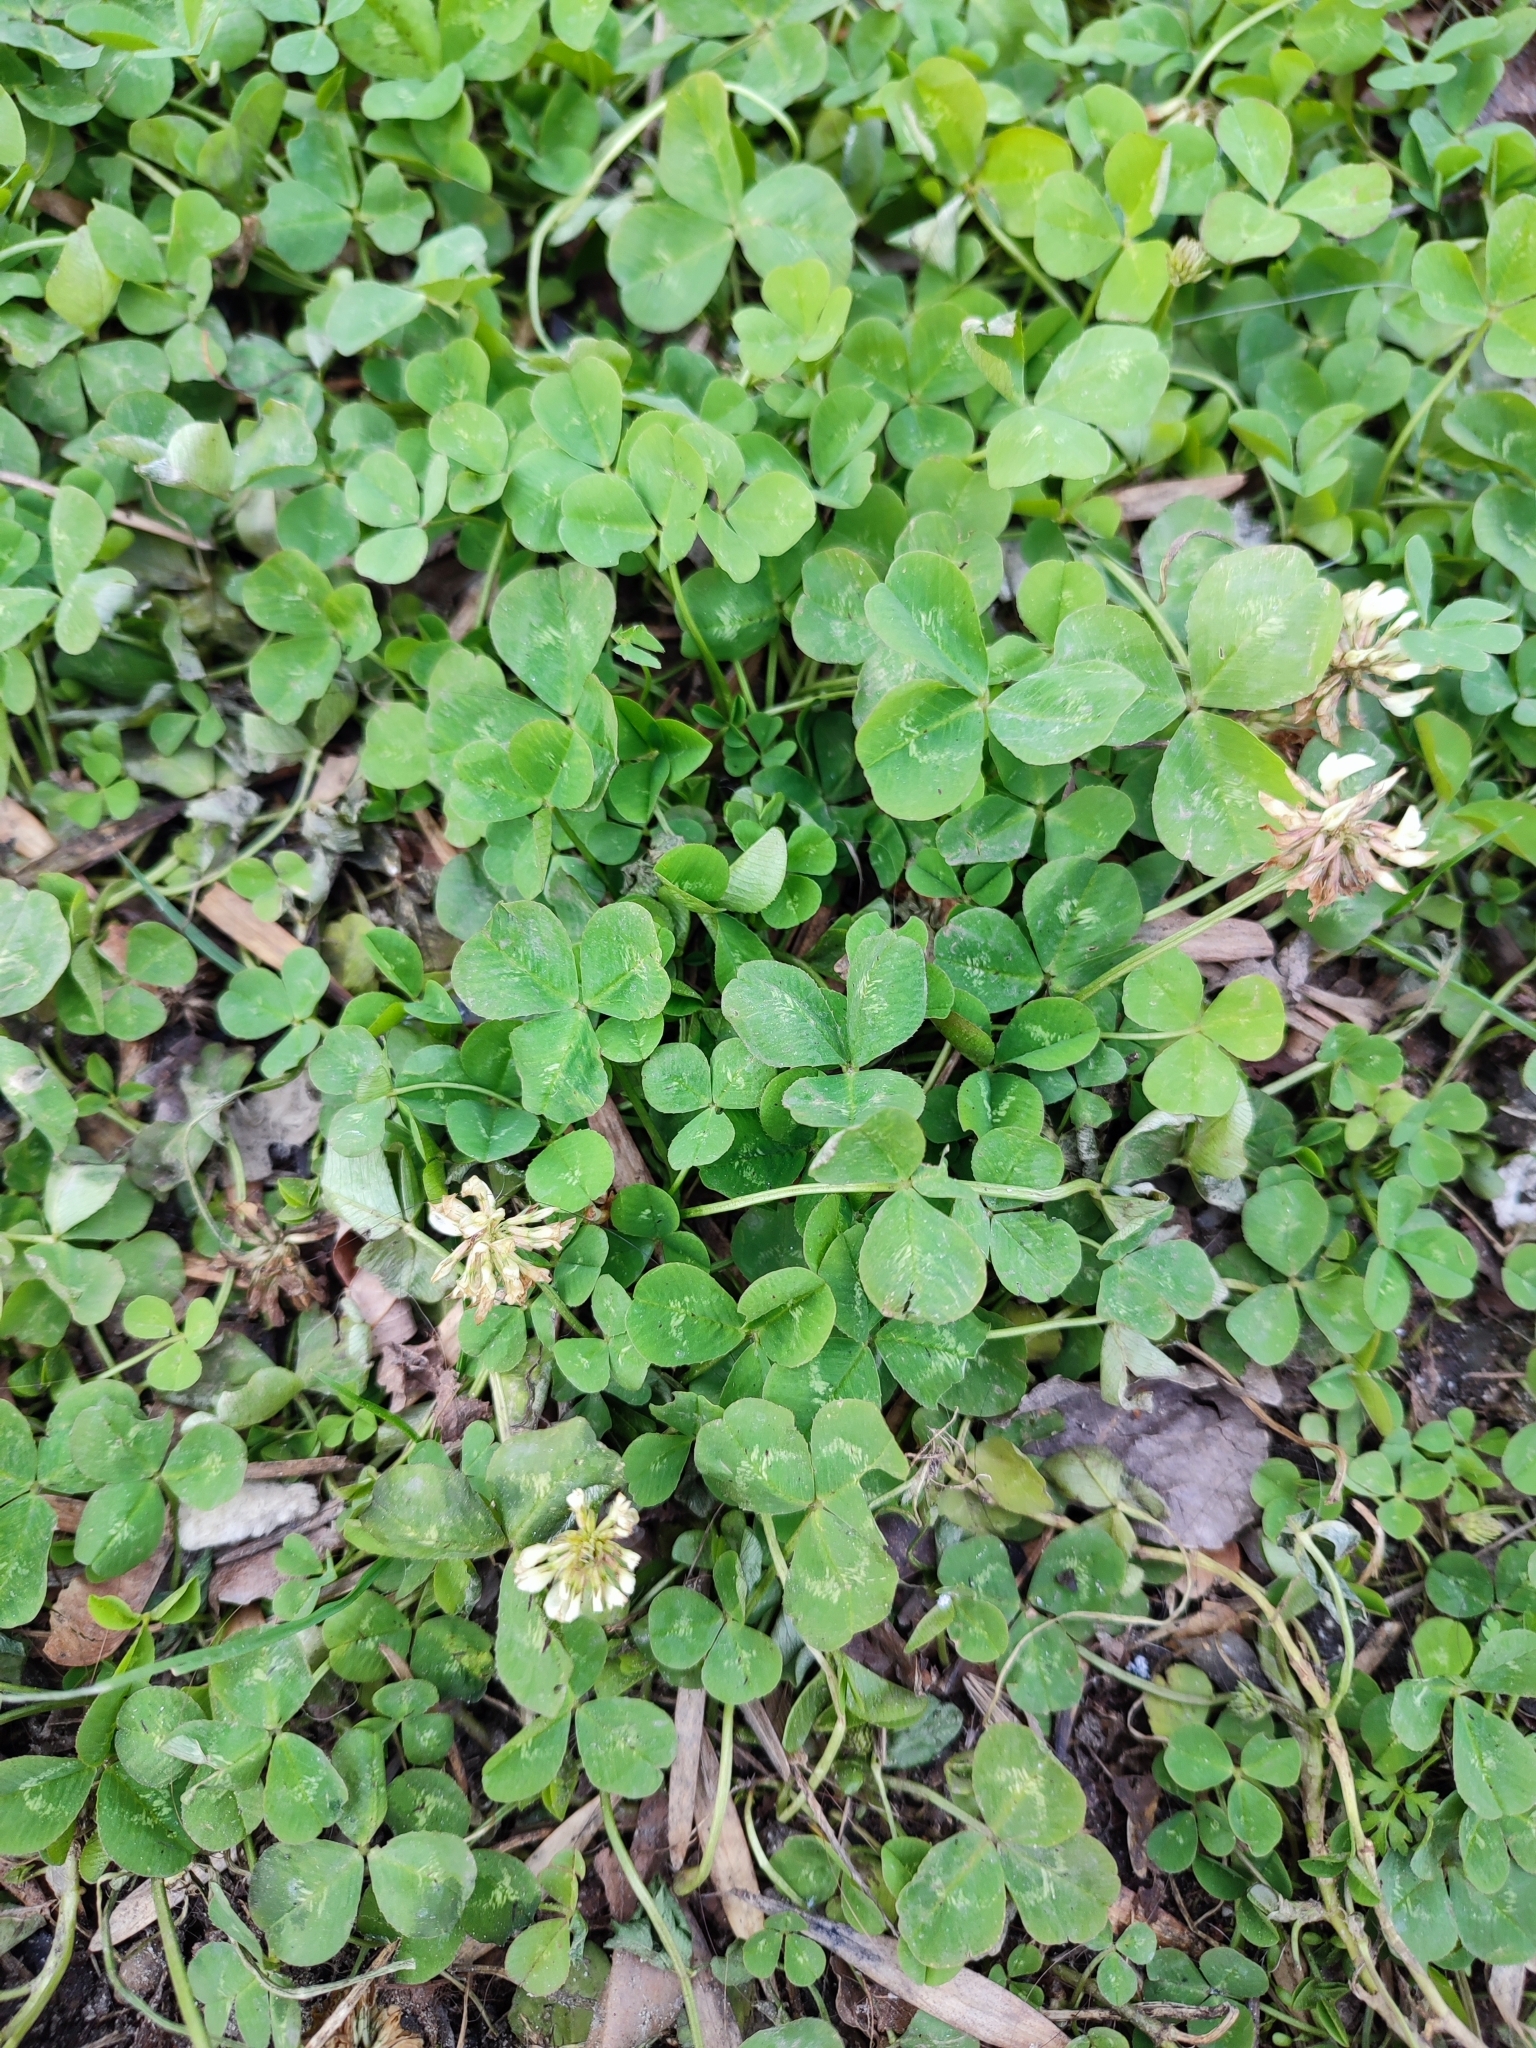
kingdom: Plantae
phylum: Tracheophyta
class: Magnoliopsida
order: Fabales
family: Fabaceae
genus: Trifolium
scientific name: Trifolium repens
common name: White clover
